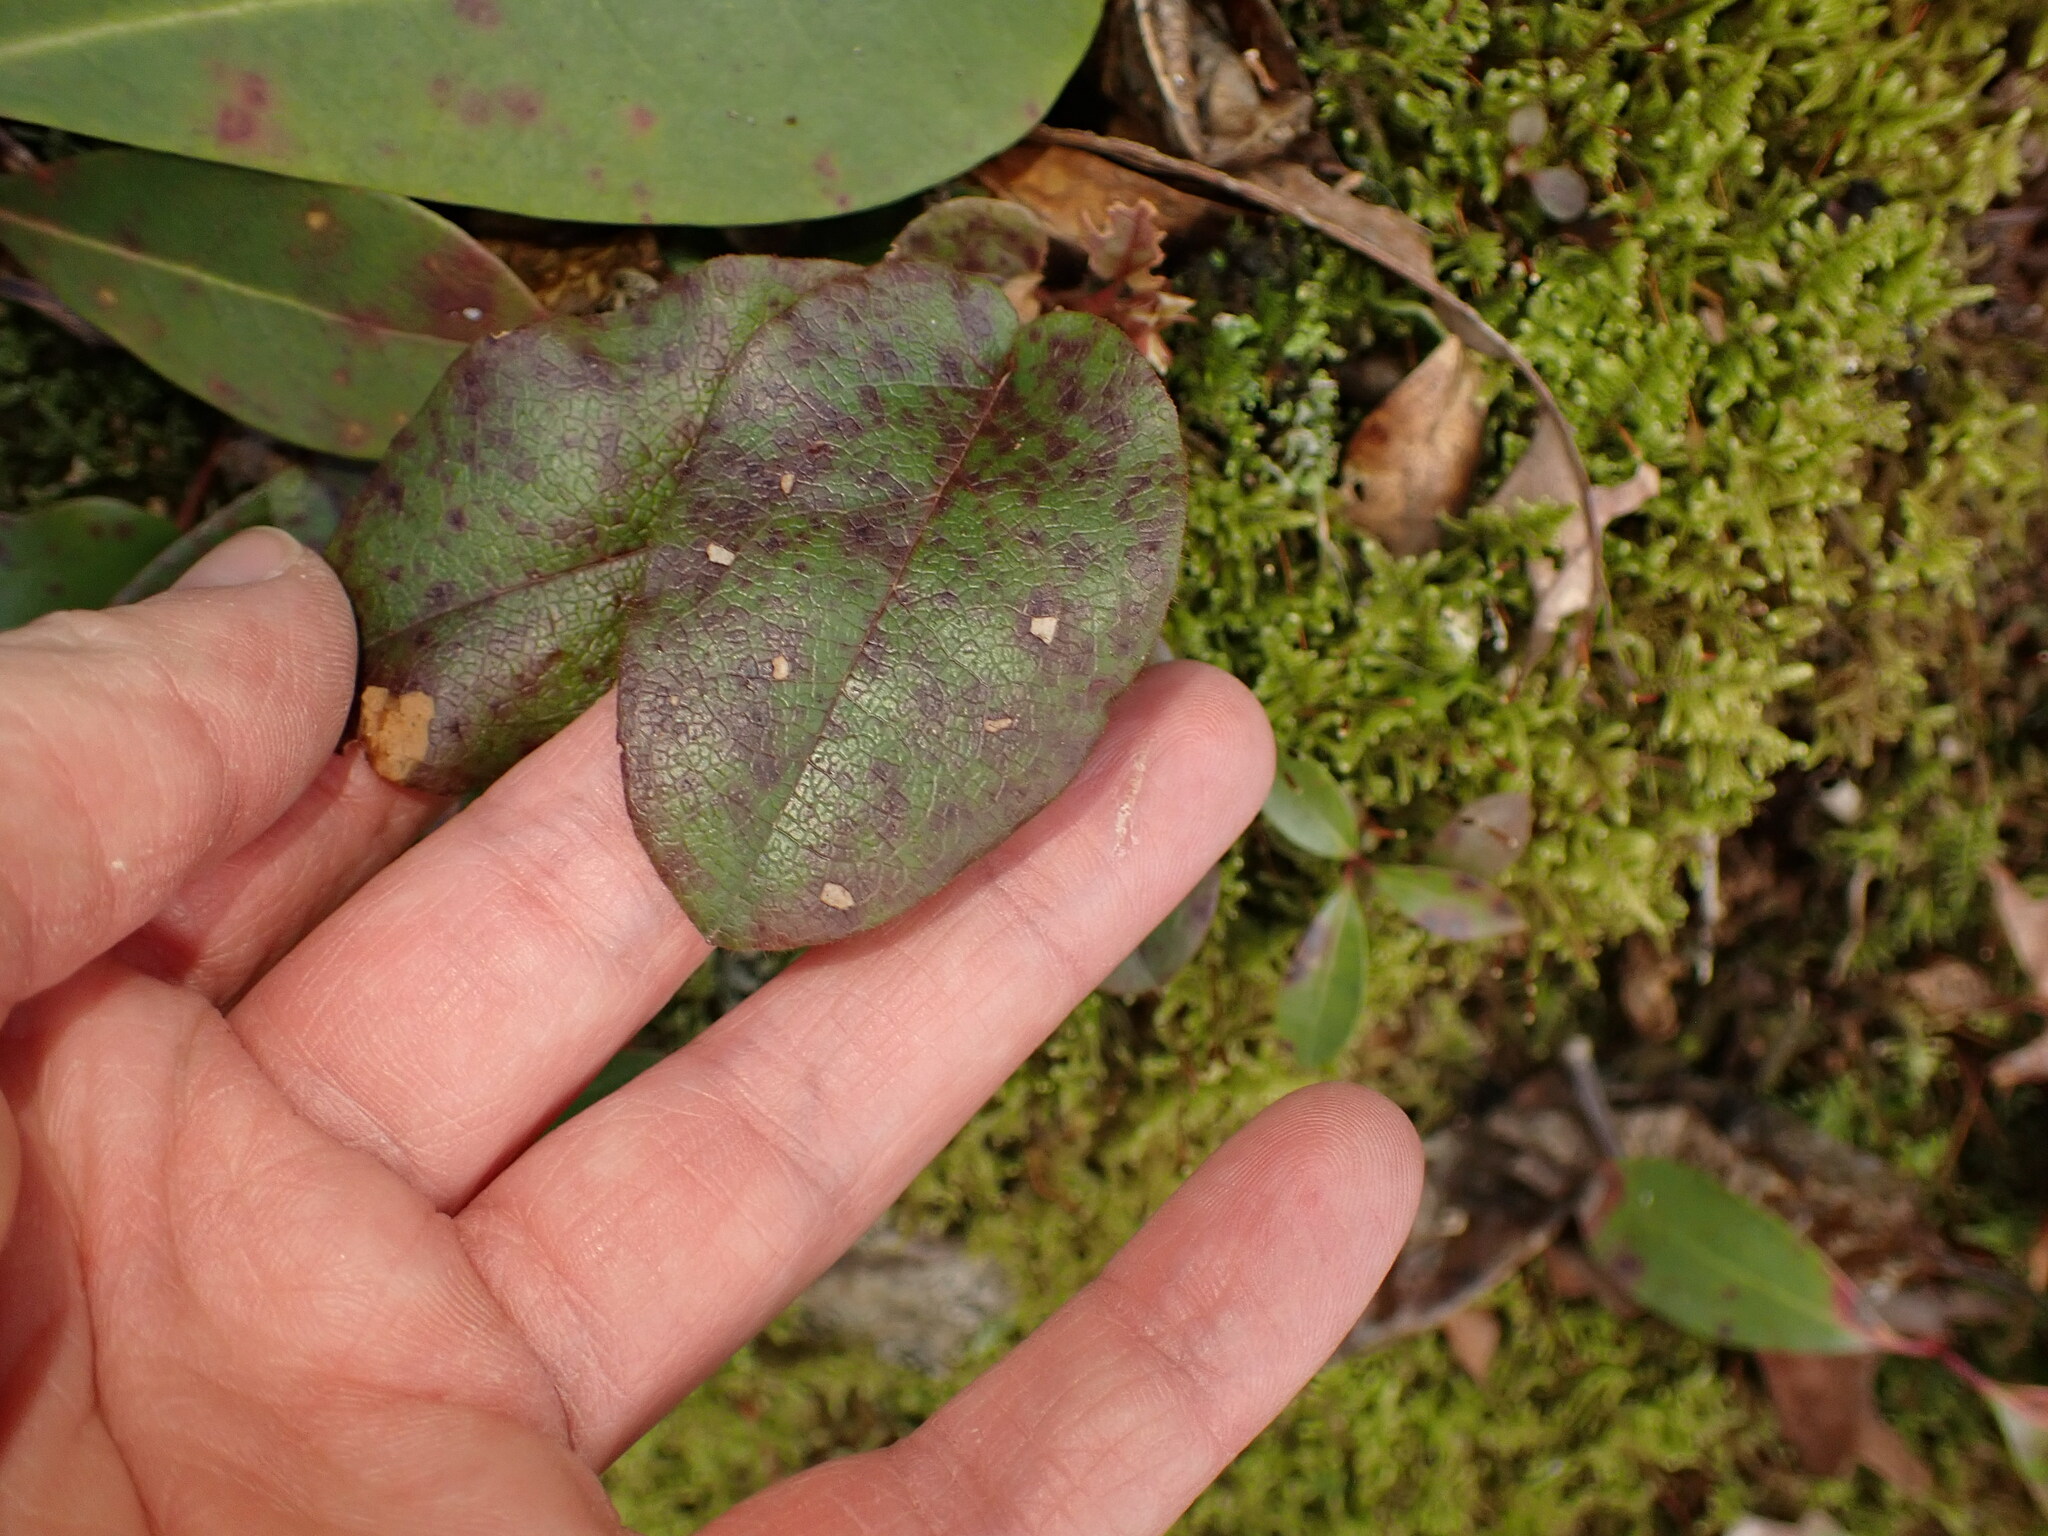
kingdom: Plantae
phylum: Tracheophyta
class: Magnoliopsida
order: Ericales
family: Ericaceae
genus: Epigaea
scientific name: Epigaea repens
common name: Gravelroot
